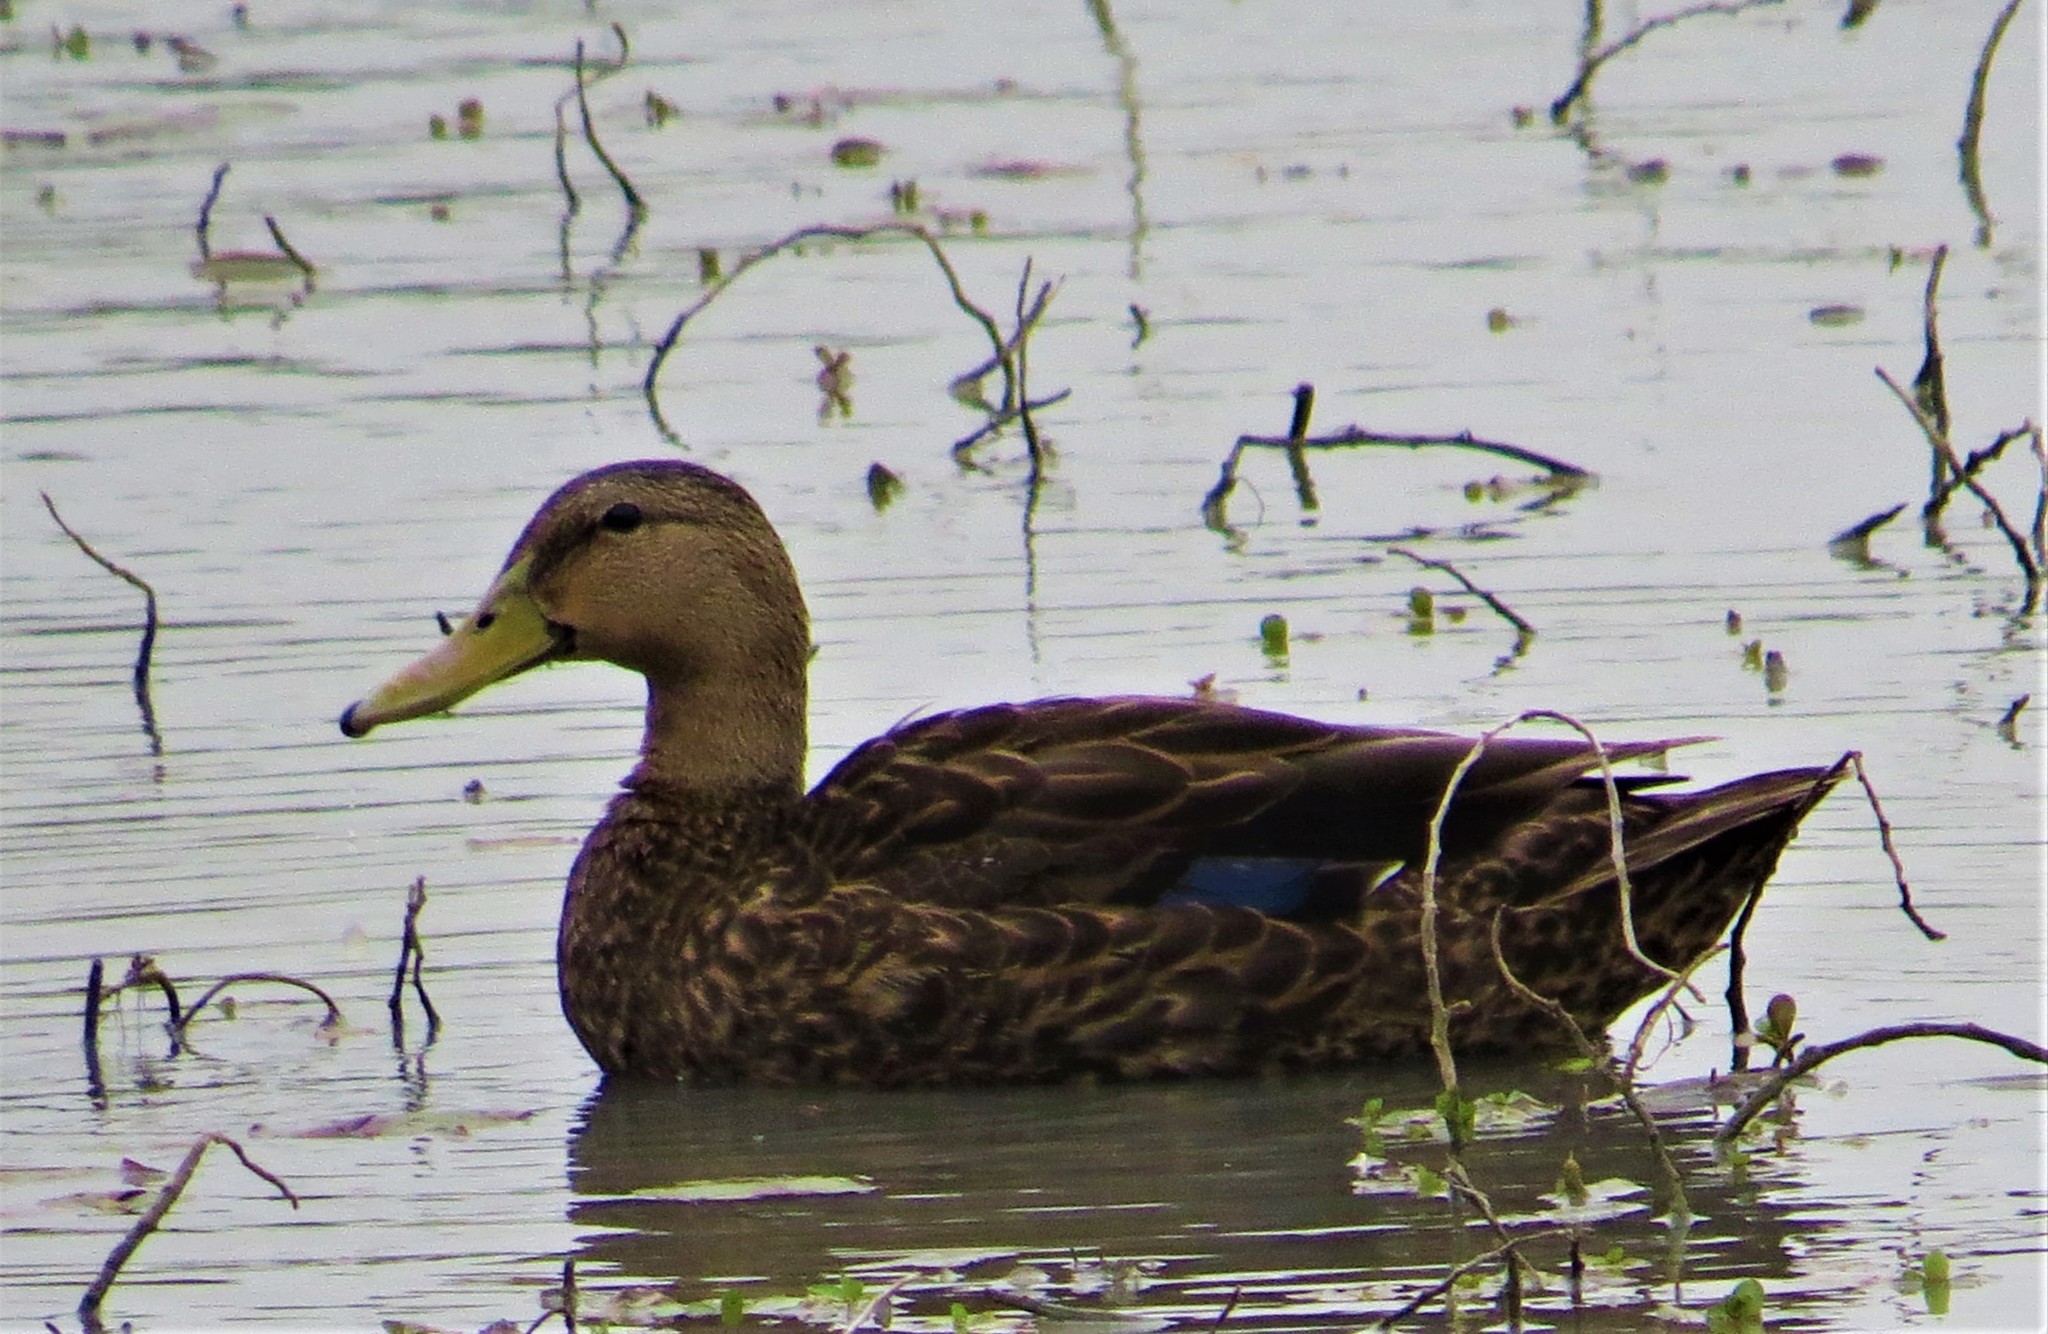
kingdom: Animalia
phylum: Chordata
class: Aves
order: Anseriformes
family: Anatidae
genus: Anas
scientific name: Anas fulvigula
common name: Mottled duck
